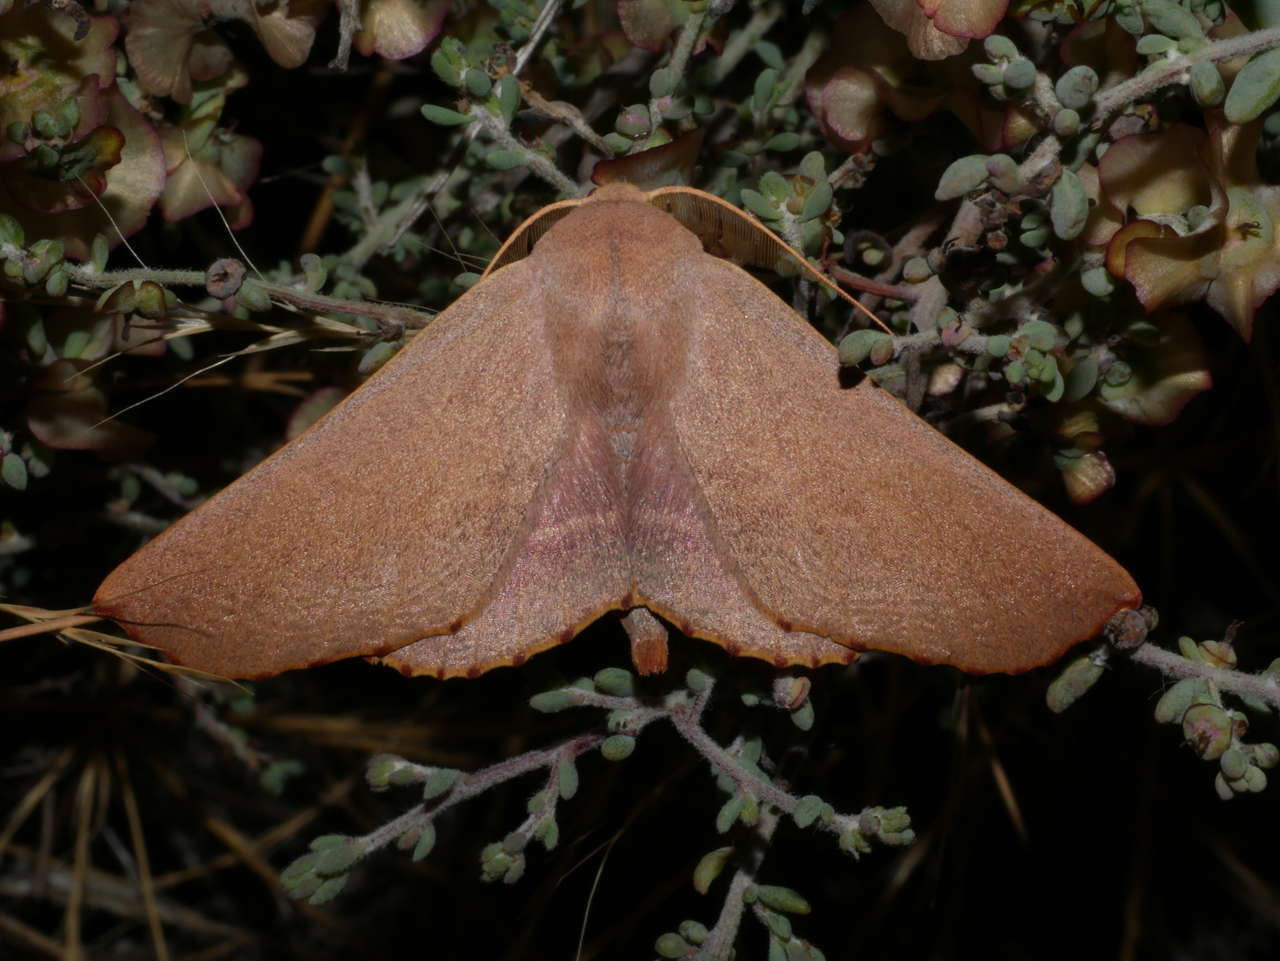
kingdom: Animalia
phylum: Arthropoda
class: Insecta
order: Lepidoptera
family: Geometridae
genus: Monoctenia
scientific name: Monoctenia smerintharia
